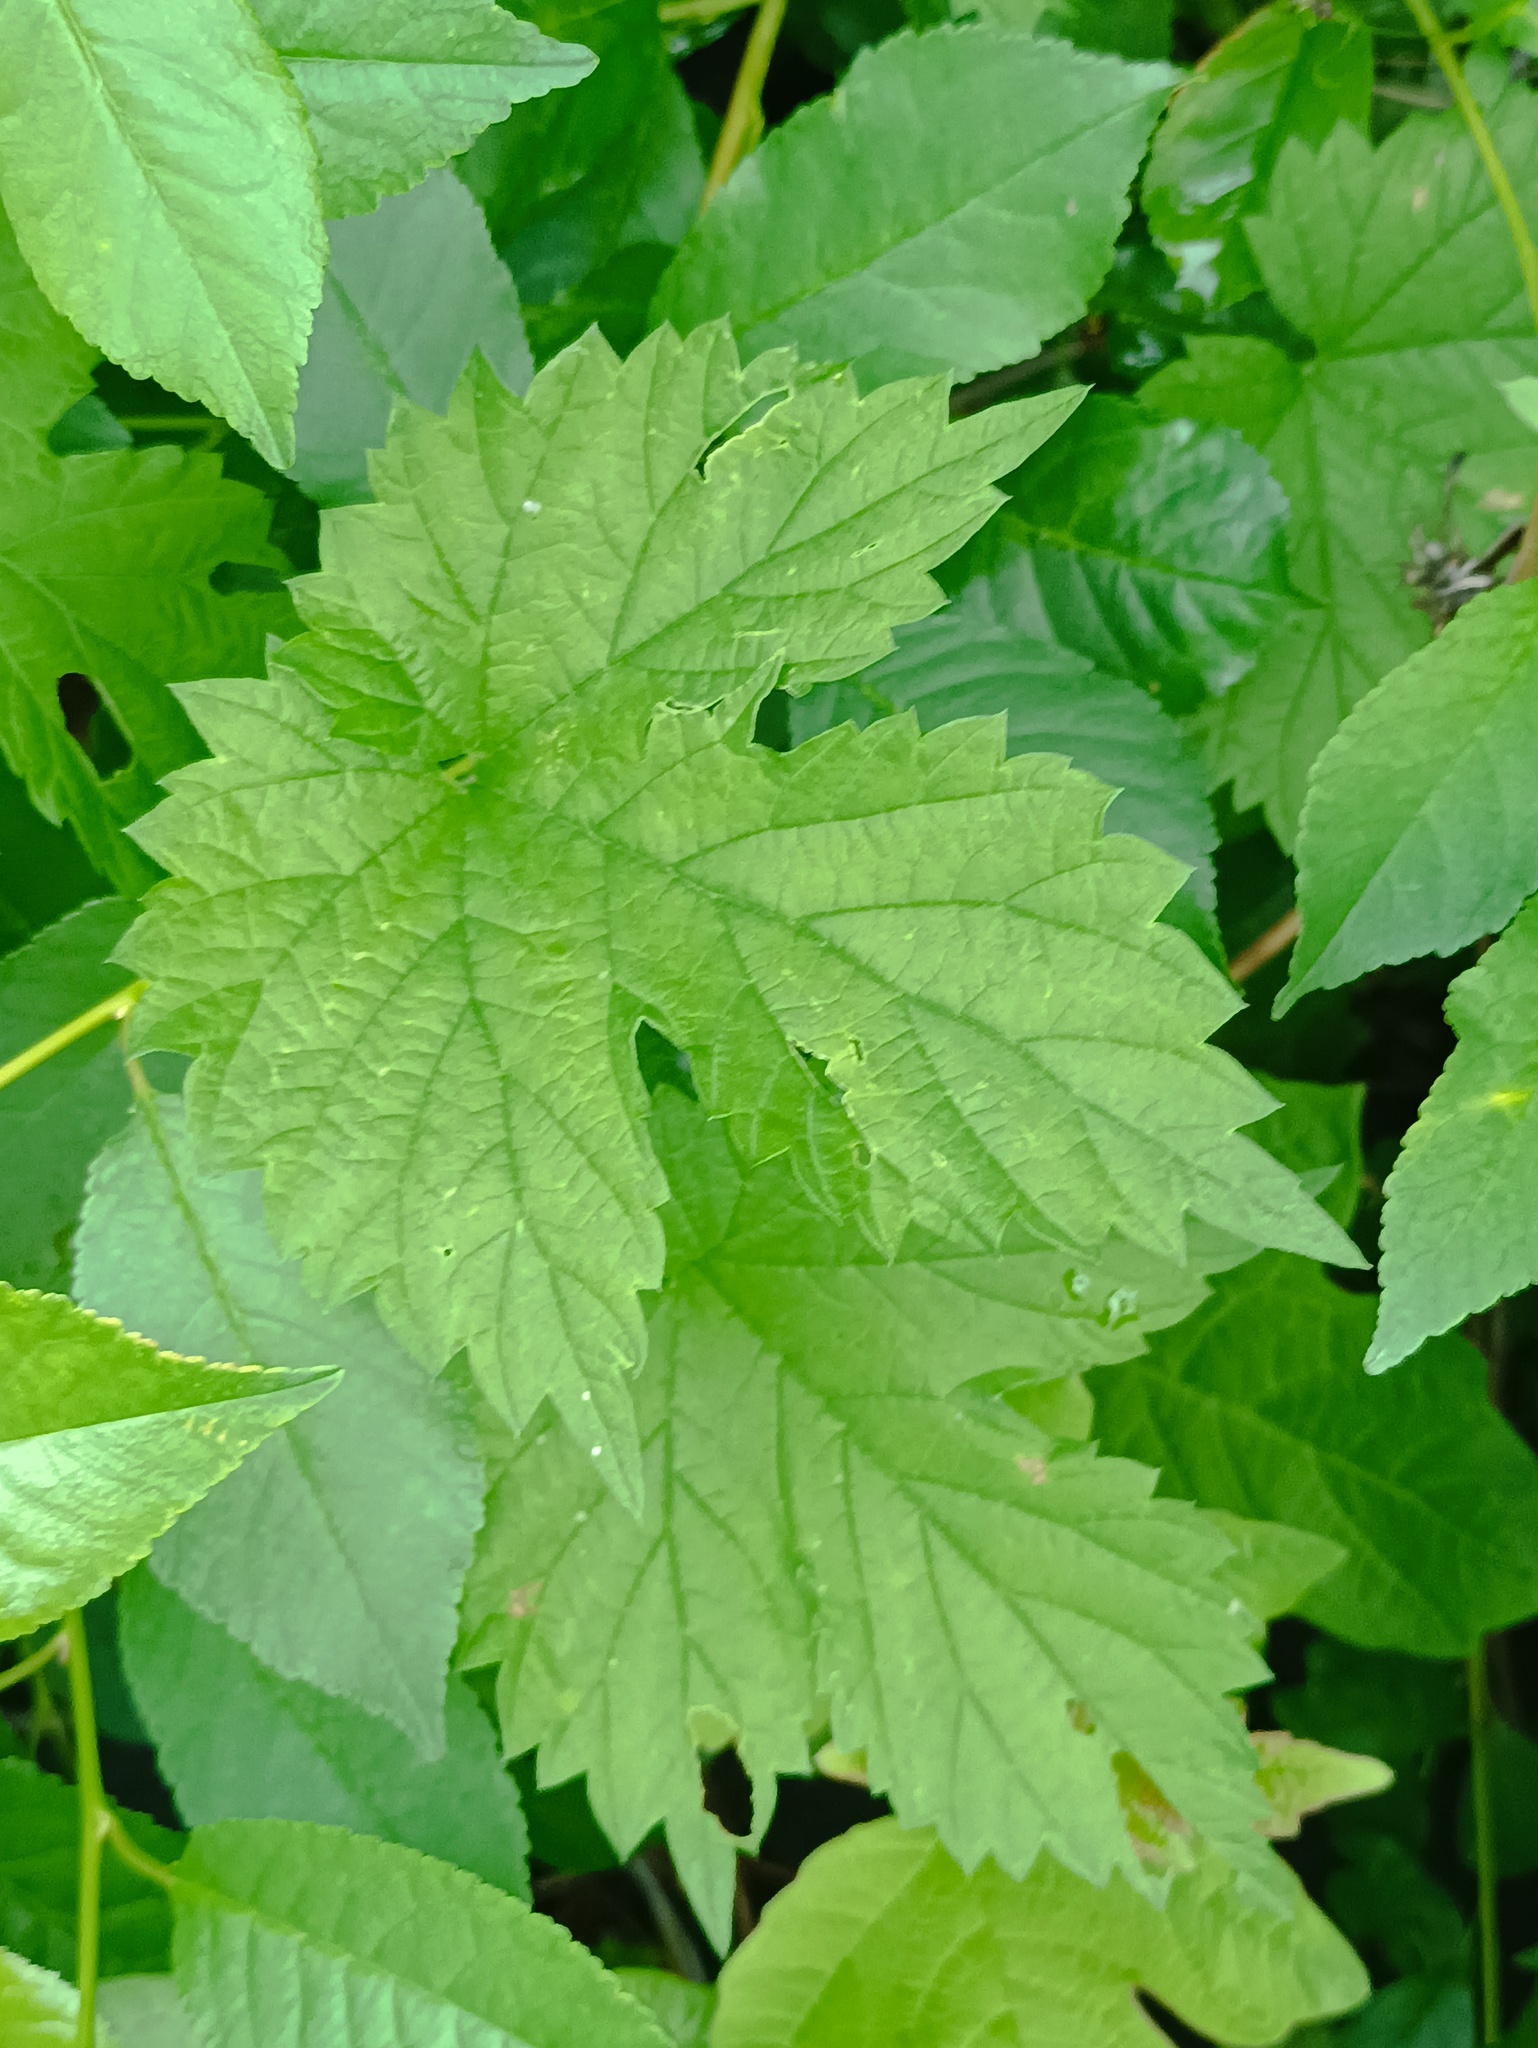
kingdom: Plantae
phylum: Tracheophyta
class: Magnoliopsida
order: Rosales
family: Cannabaceae
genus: Humulus
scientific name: Humulus lupulus
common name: Hop
